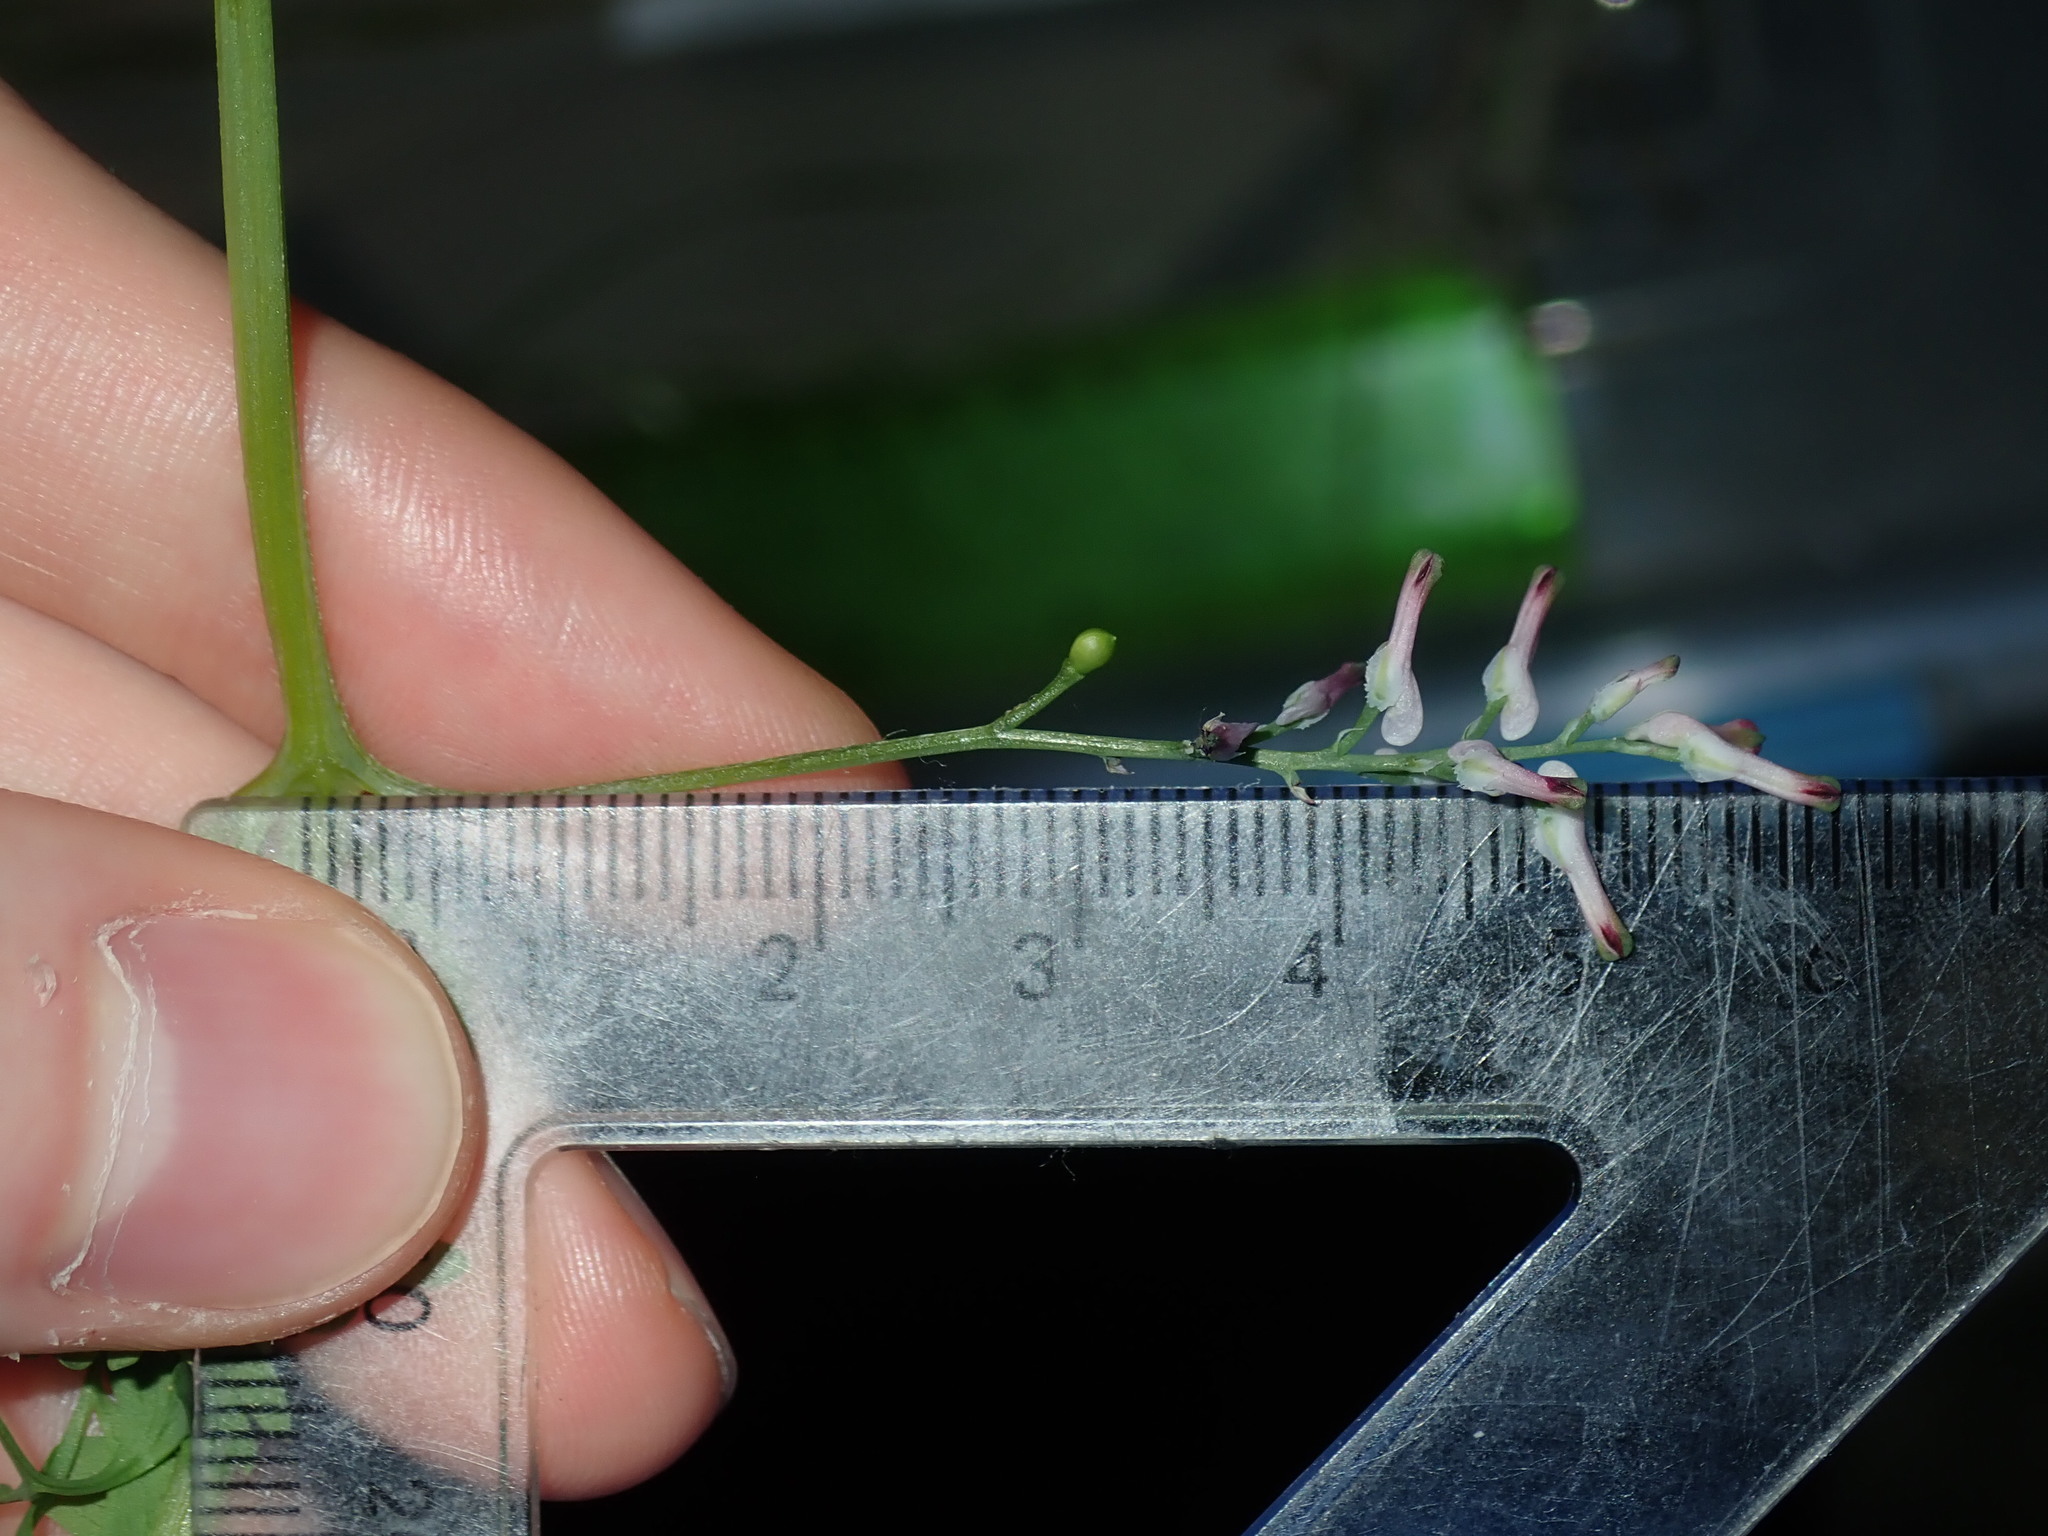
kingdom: Plantae
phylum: Tracheophyta
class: Magnoliopsida
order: Ranunculales
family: Papaveraceae
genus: Fumaria
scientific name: Fumaria muralis
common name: Common ramping-fumitory
